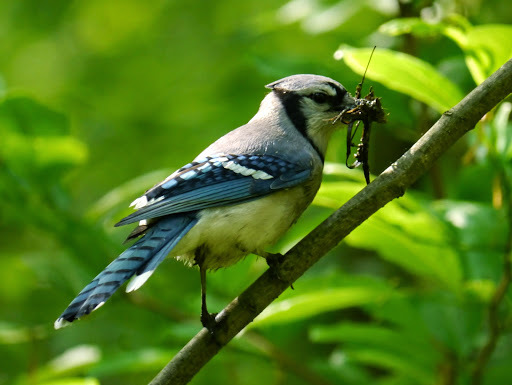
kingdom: Animalia
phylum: Chordata
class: Aves
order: Passeriformes
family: Corvidae
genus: Cyanocitta
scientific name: Cyanocitta cristata
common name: Blue jay
